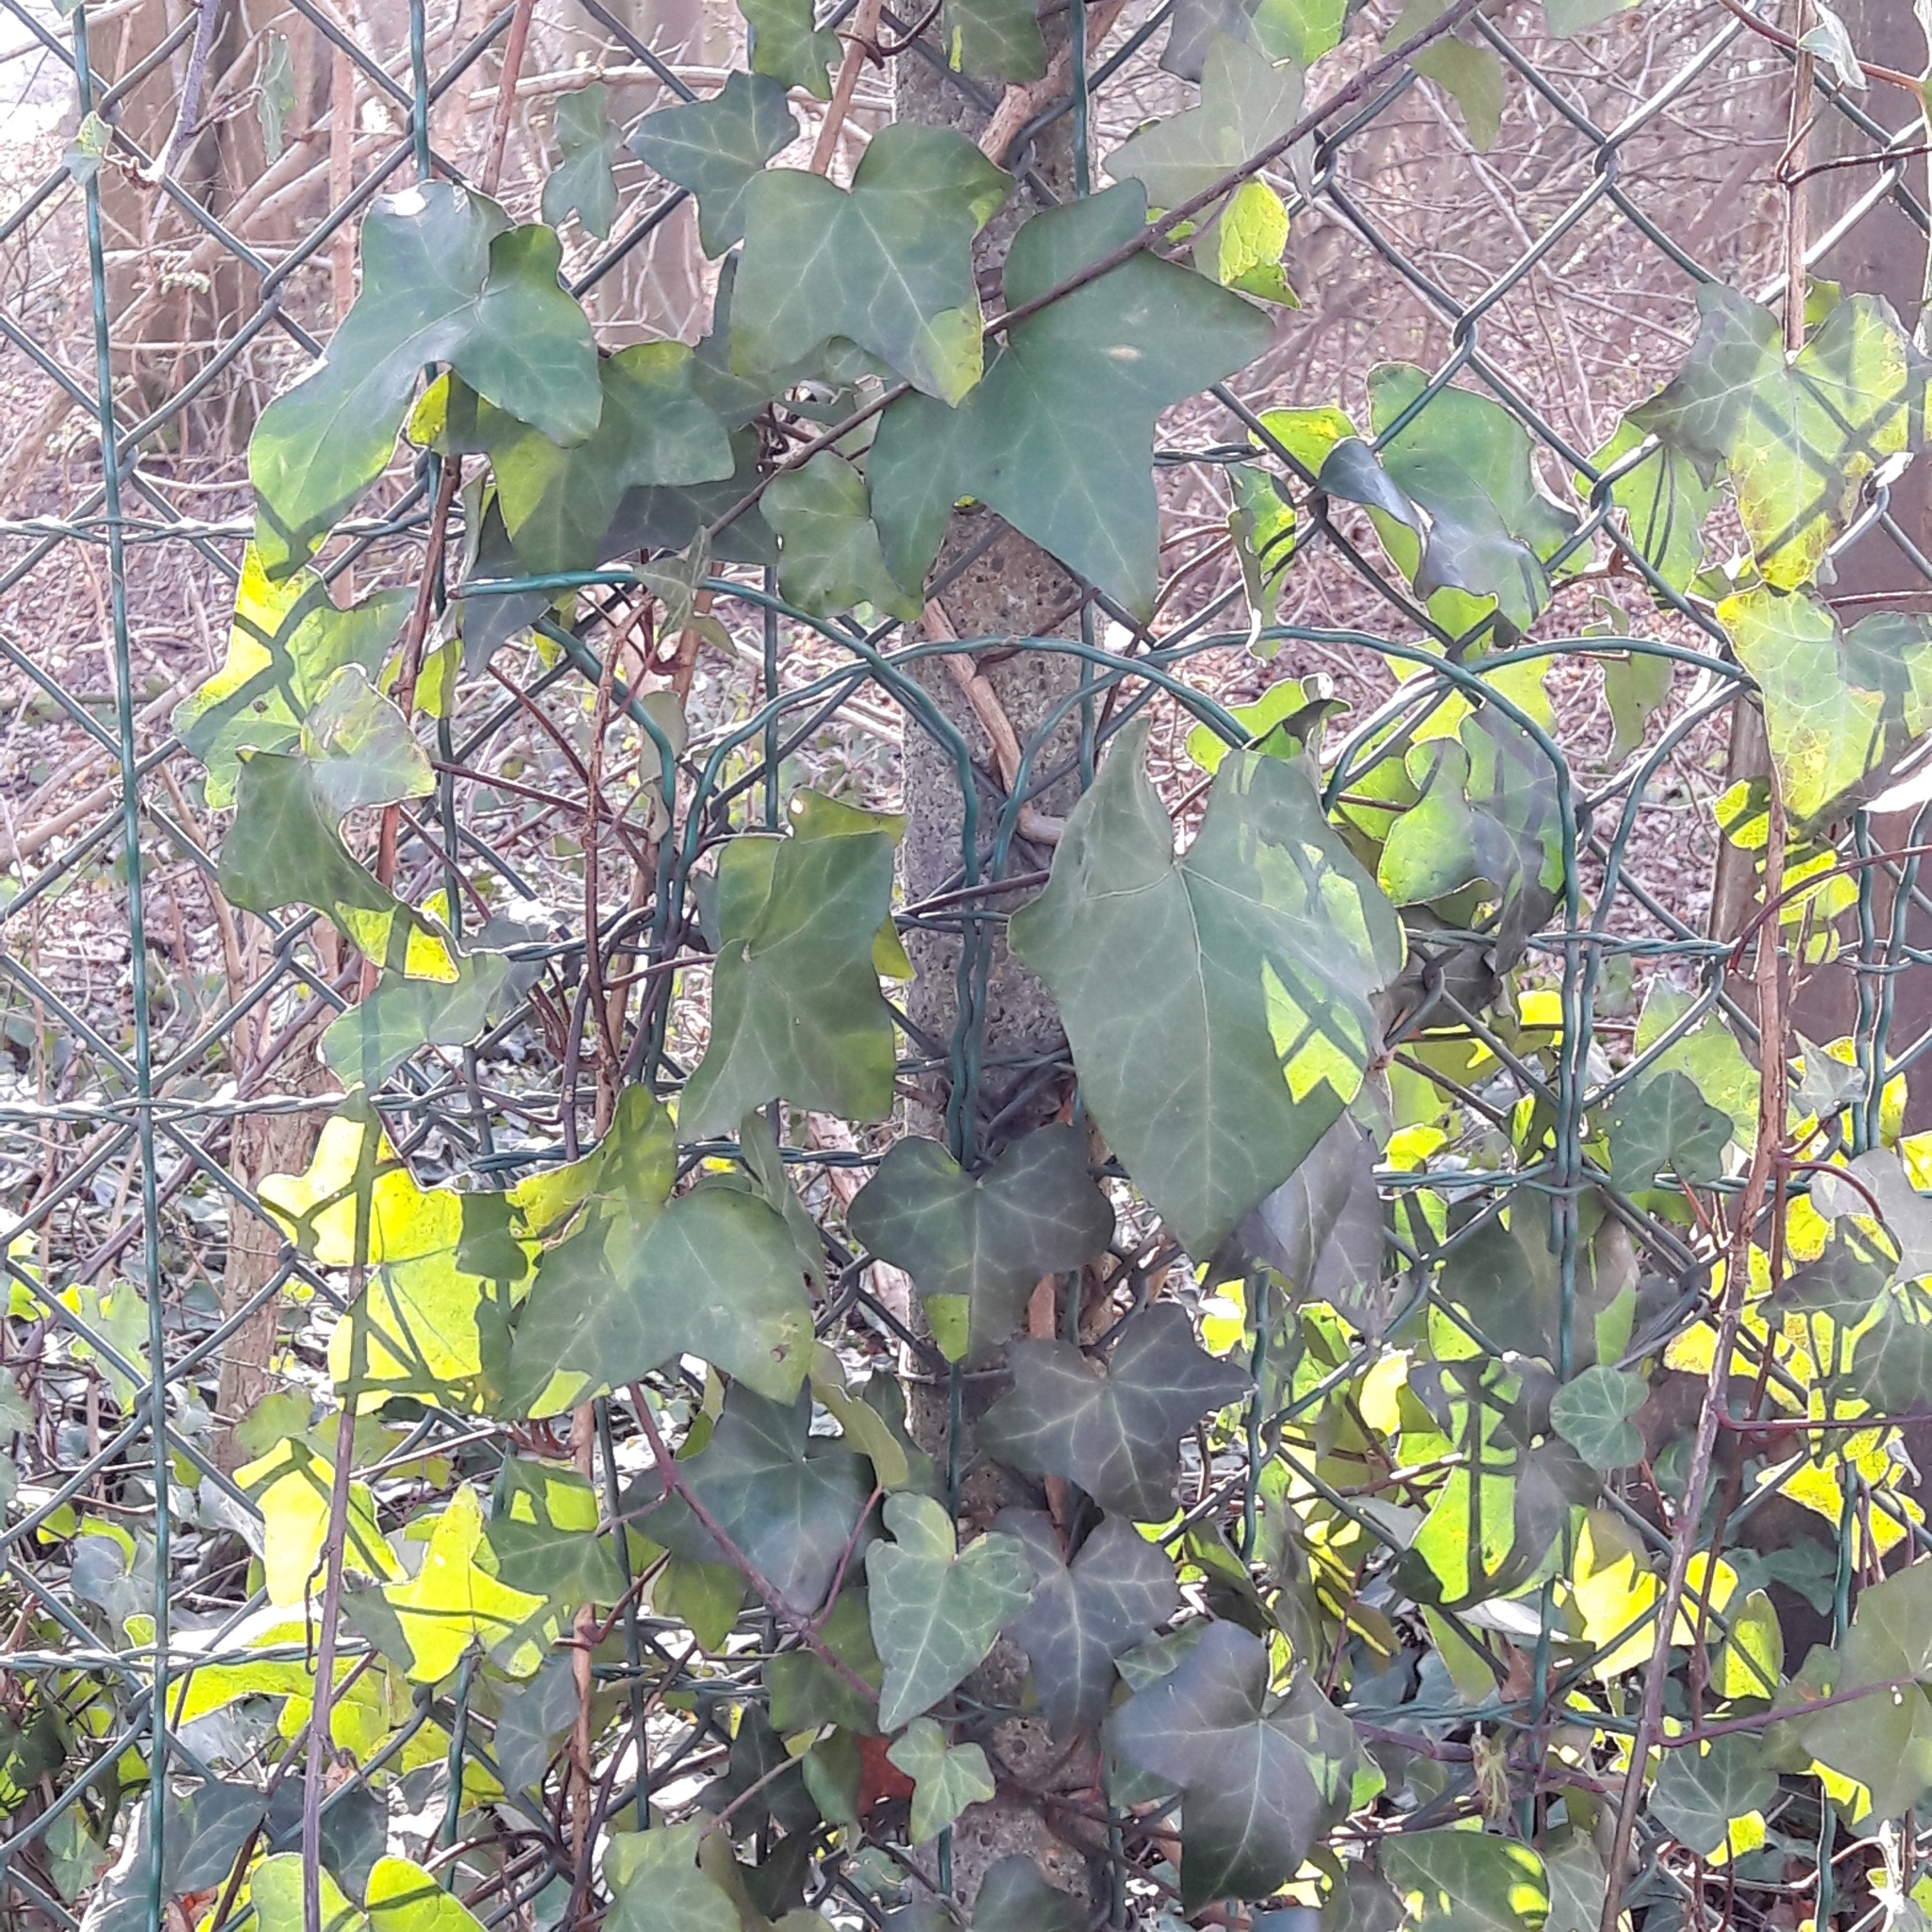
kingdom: Plantae
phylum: Tracheophyta
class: Magnoliopsida
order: Apiales
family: Araliaceae
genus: Hedera
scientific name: Hedera helix
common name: Ivy
